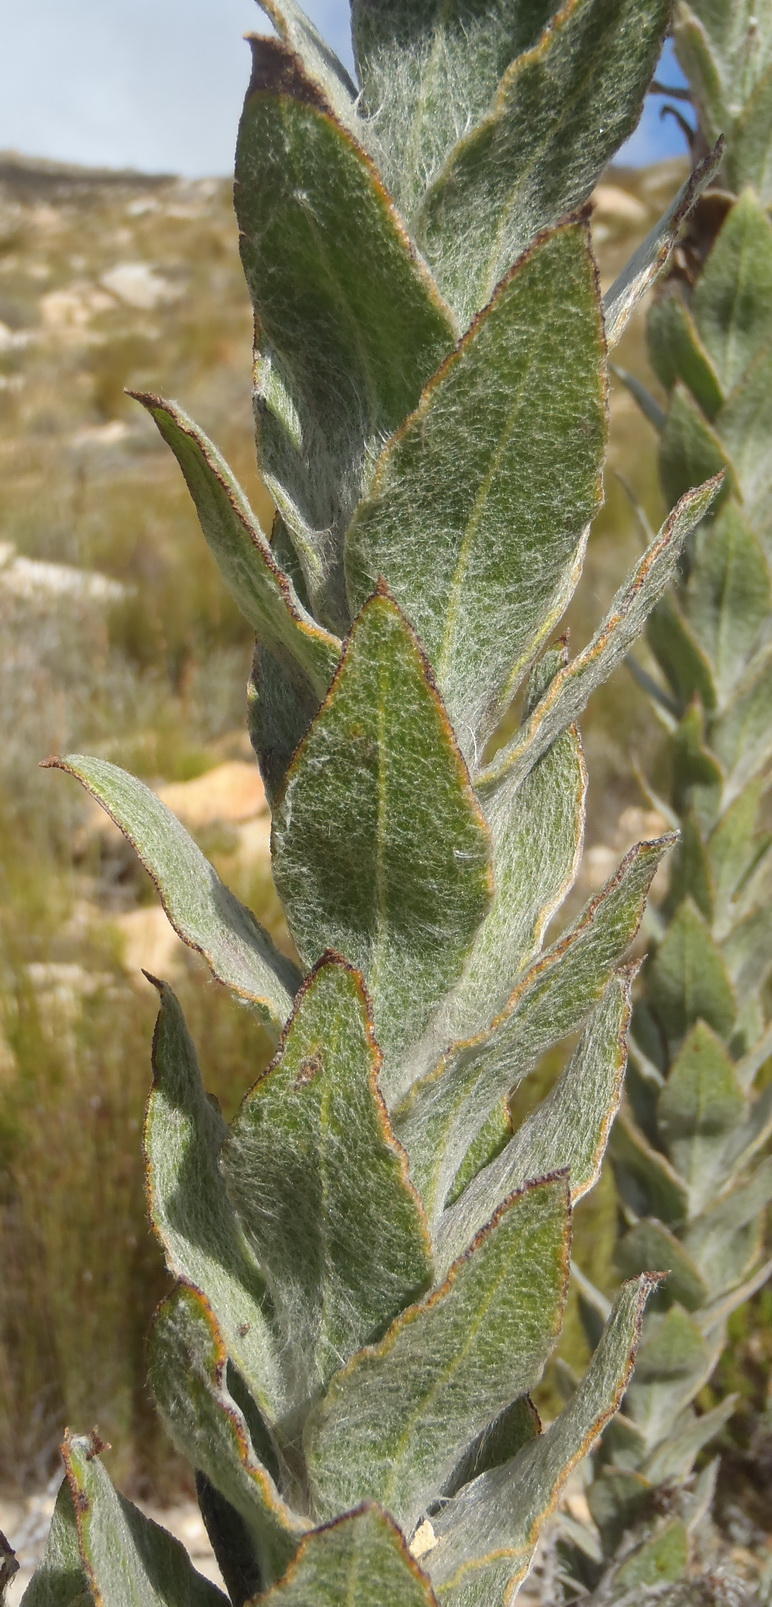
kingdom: Plantae
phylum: Tracheophyta
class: Magnoliopsida
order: Asterales
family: Asteraceae
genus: Syncarpha
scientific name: Syncarpha milleflora
